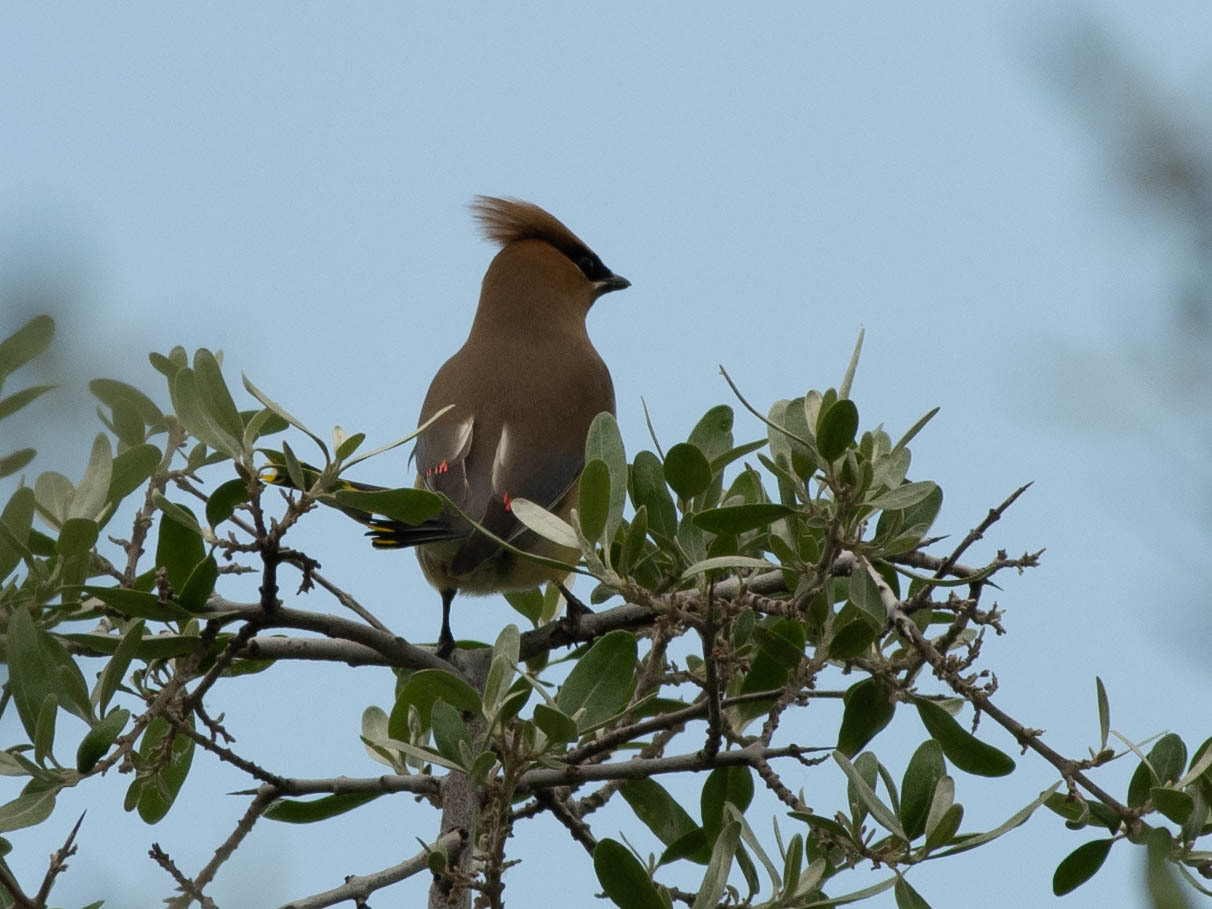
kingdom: Animalia
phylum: Chordata
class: Aves
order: Passeriformes
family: Bombycillidae
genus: Bombycilla
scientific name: Bombycilla cedrorum
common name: Cedar waxwing
